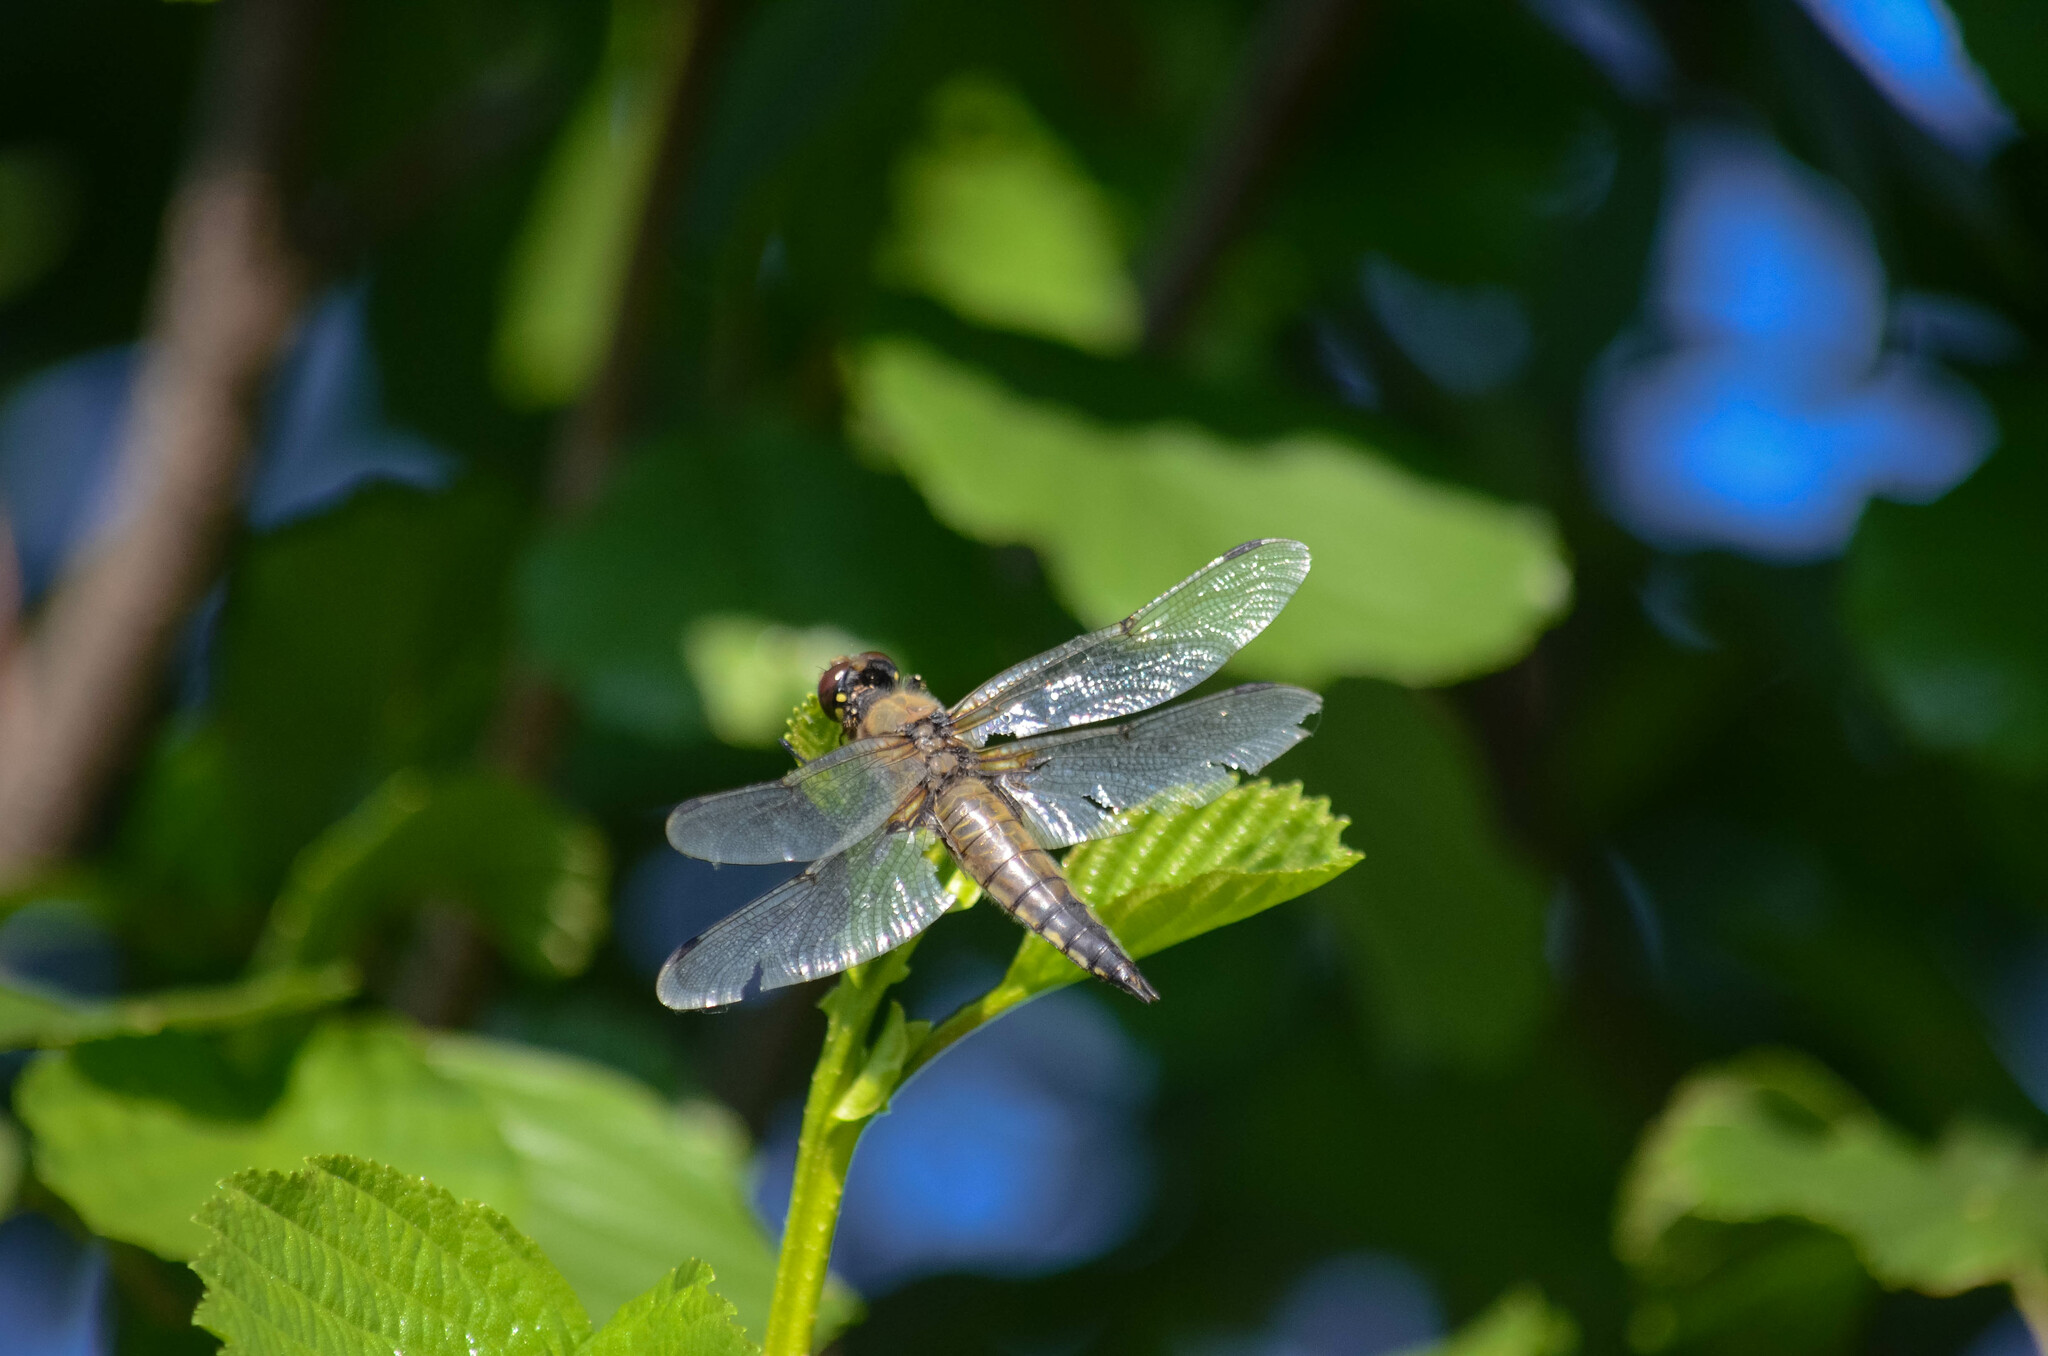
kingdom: Animalia
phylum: Arthropoda
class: Insecta
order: Odonata
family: Libellulidae
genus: Libellula
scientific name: Libellula quadrimaculata
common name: Four-spotted chaser
